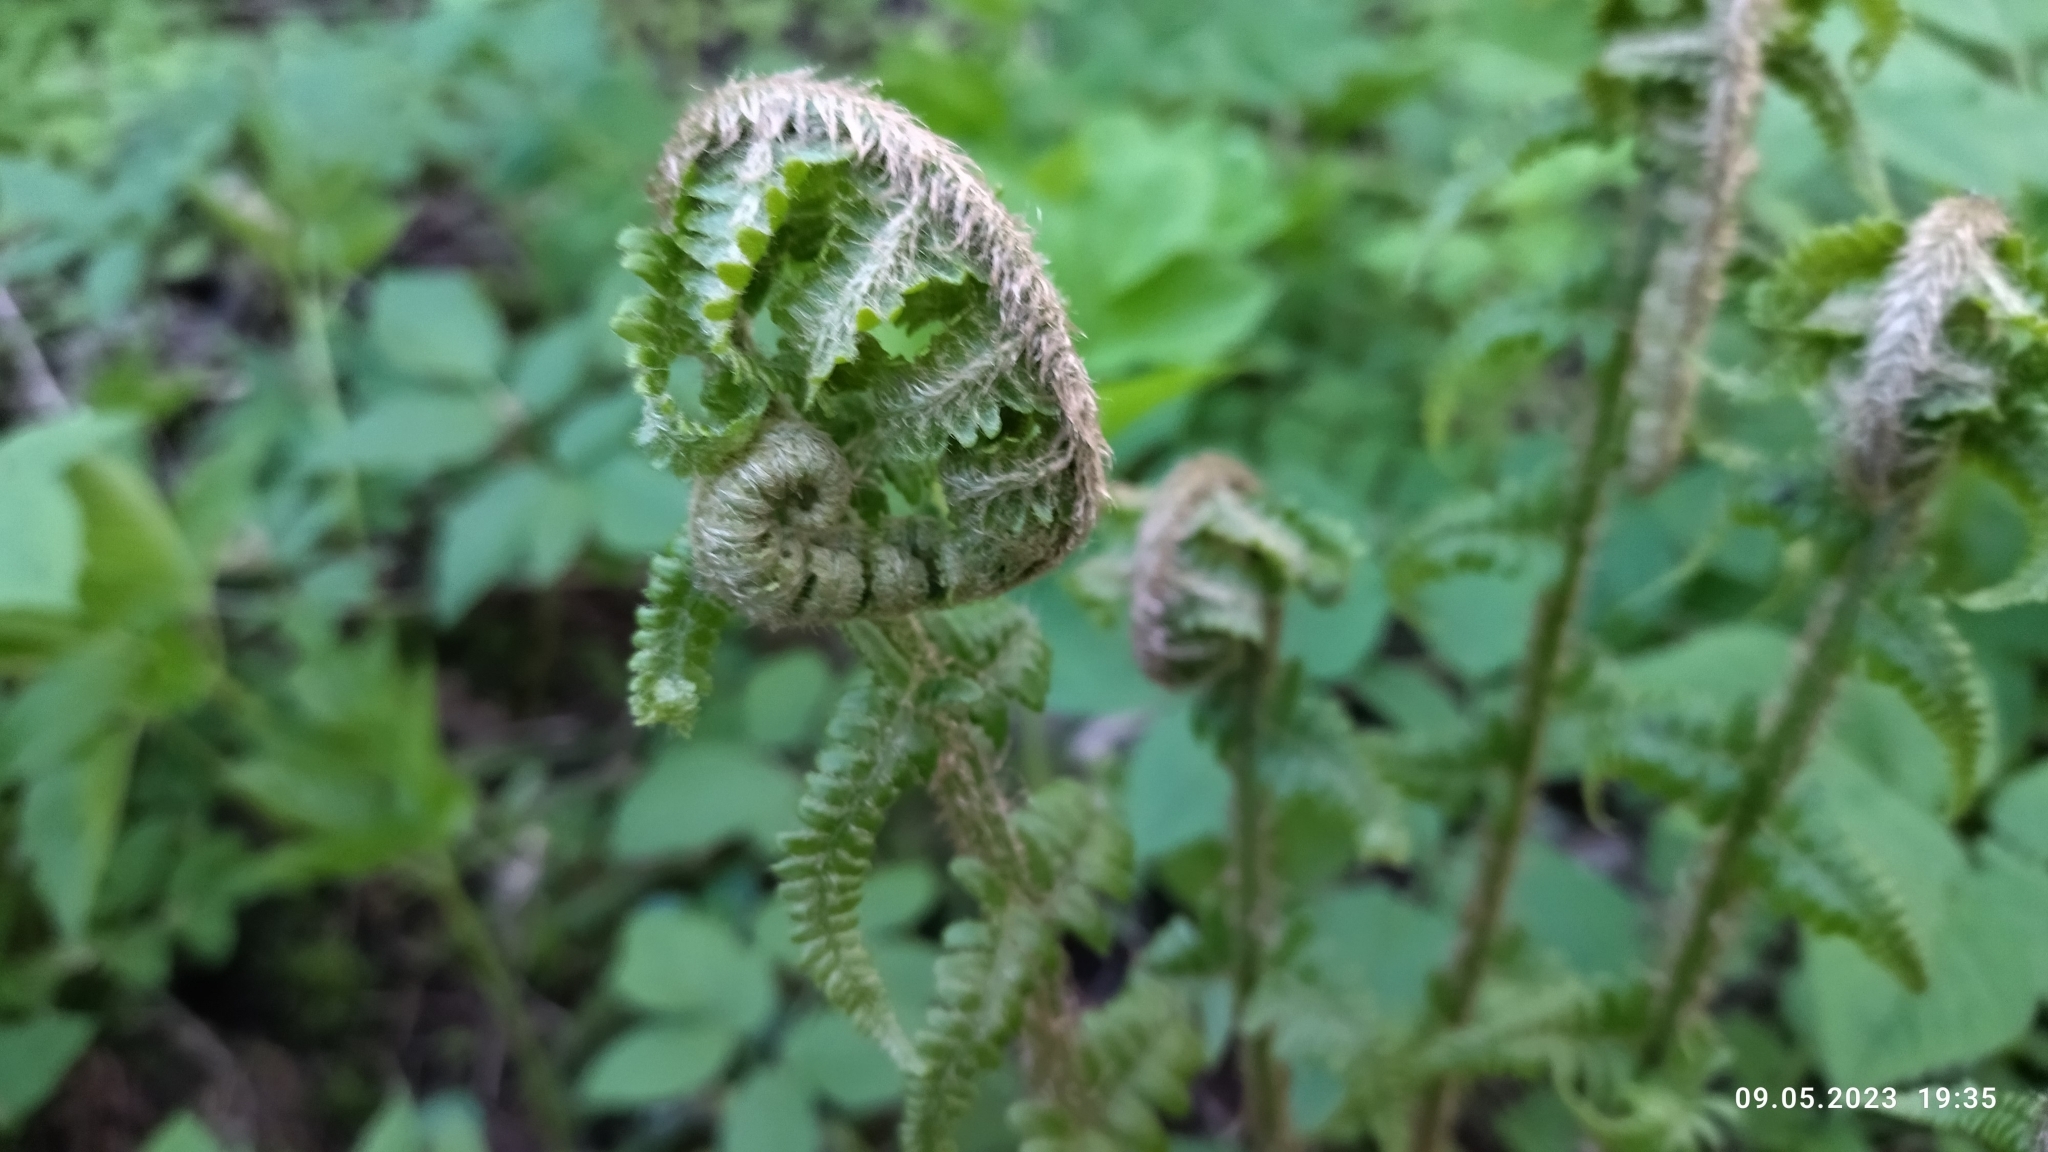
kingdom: Plantae
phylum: Tracheophyta
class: Polypodiopsida
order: Polypodiales
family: Dryopteridaceae
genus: Dryopteris
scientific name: Dryopteris filix-mas
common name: Male fern
